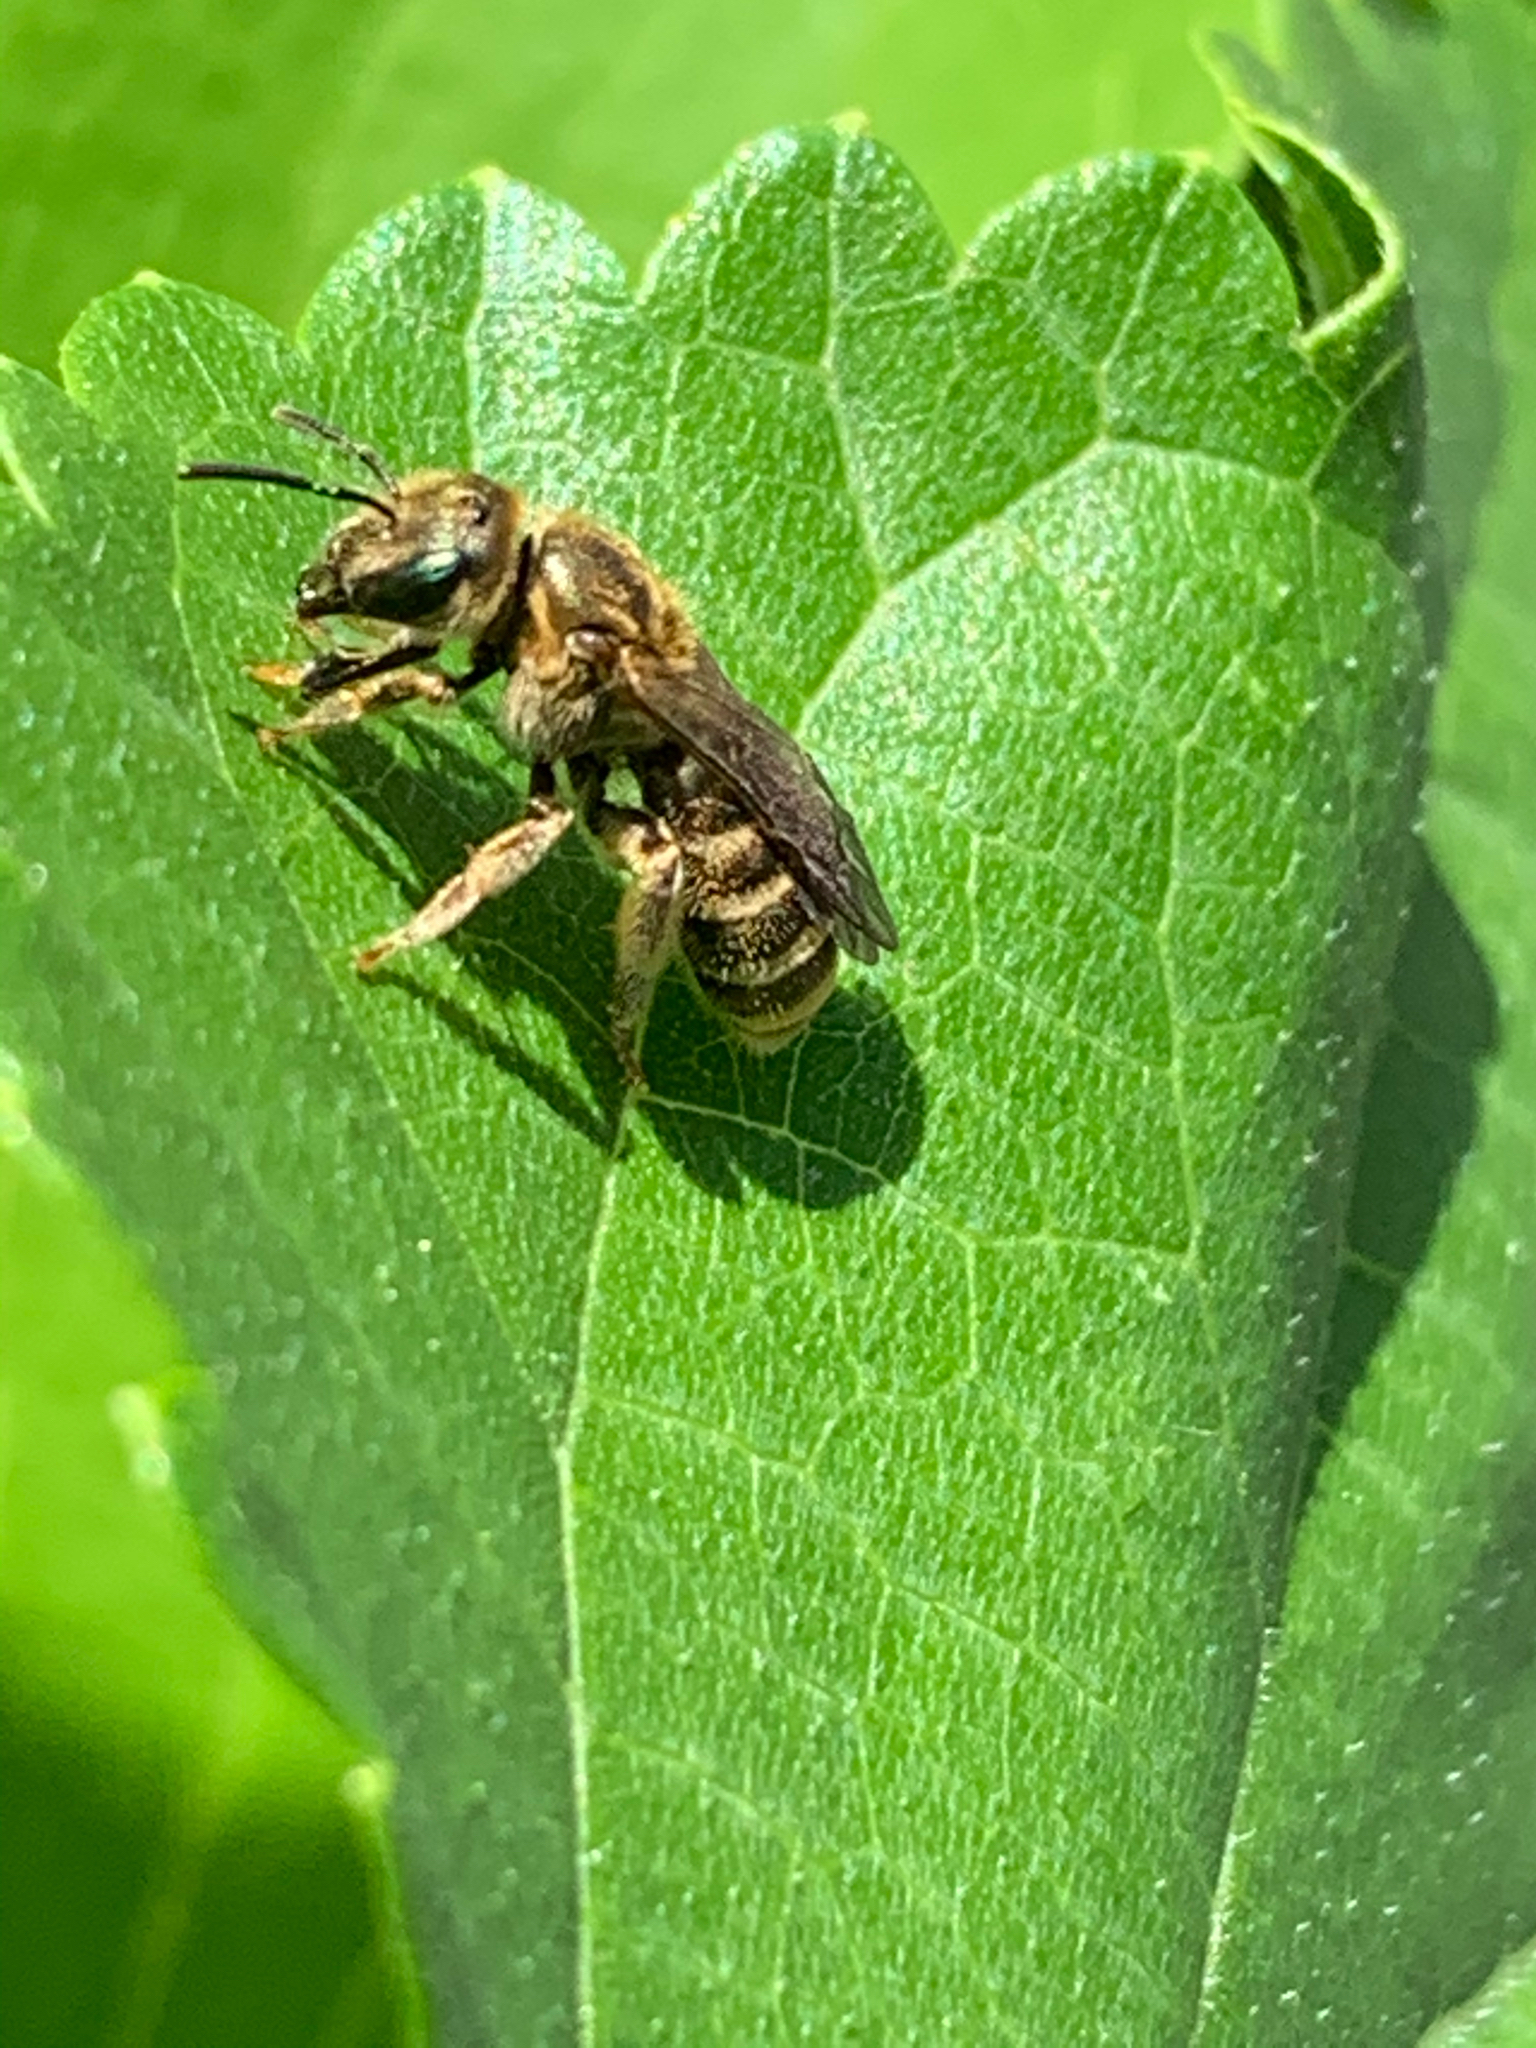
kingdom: Animalia
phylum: Arthropoda
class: Insecta
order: Hymenoptera
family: Halictidae
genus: Halictus
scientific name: Halictus confusus
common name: Southern bronze furrow bee
